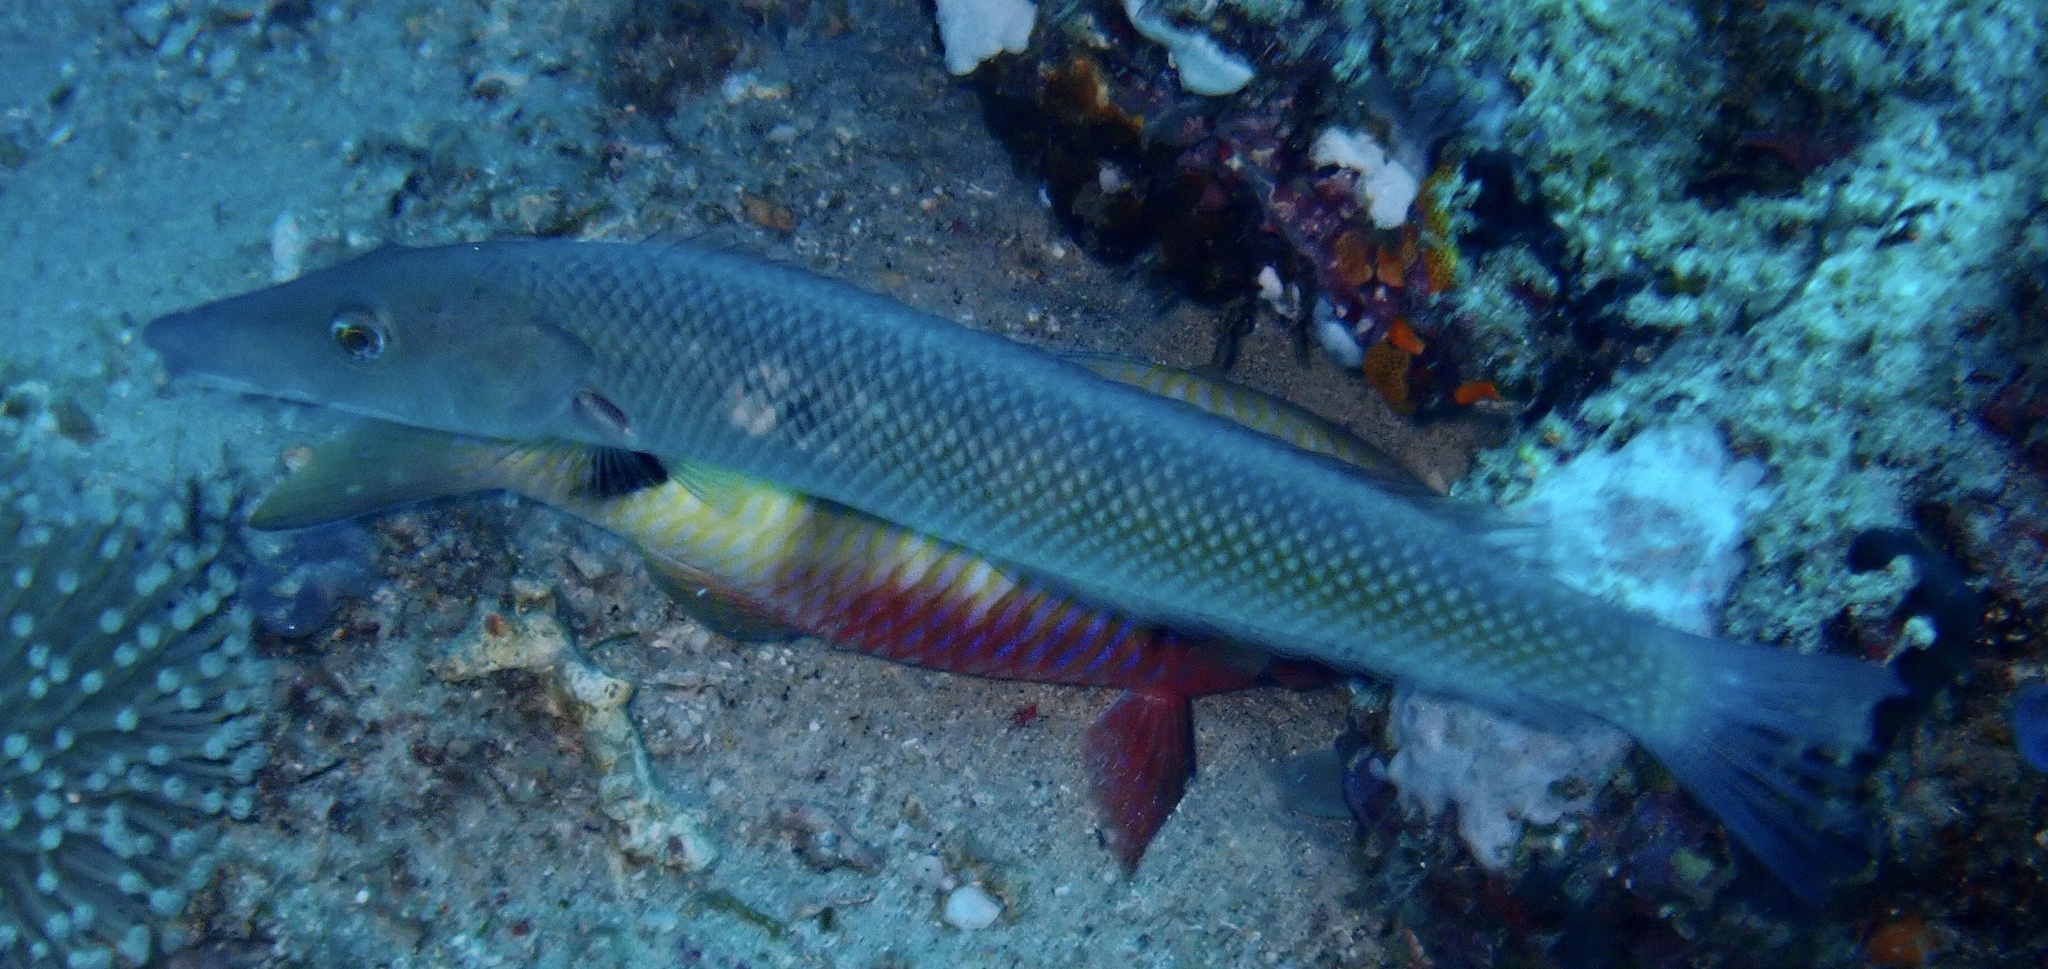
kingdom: Animalia
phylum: Chordata
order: Perciformes
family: Labridae
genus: Cheilio
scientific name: Cheilio inermis
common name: Cigar wrasse
